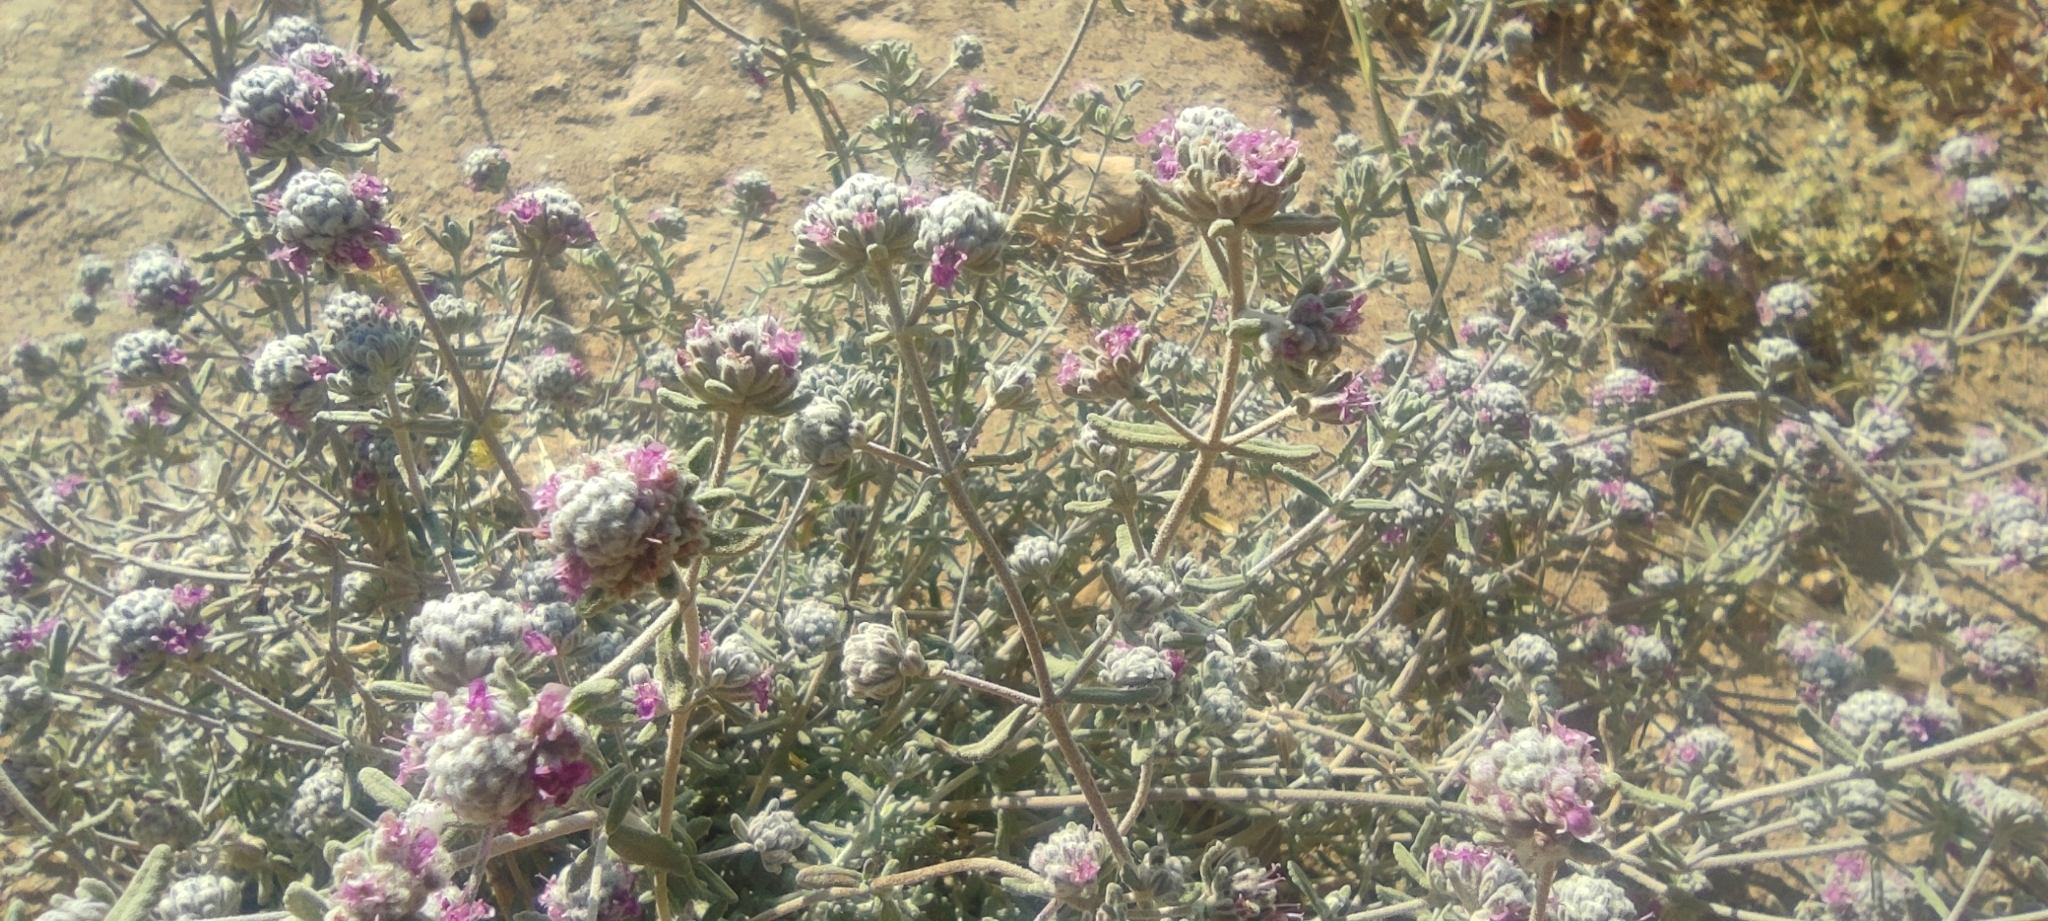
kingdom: Plantae
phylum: Tracheophyta
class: Magnoliopsida
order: Lamiales
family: Lamiaceae
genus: Teucrium
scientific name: Teucrium capitatum
